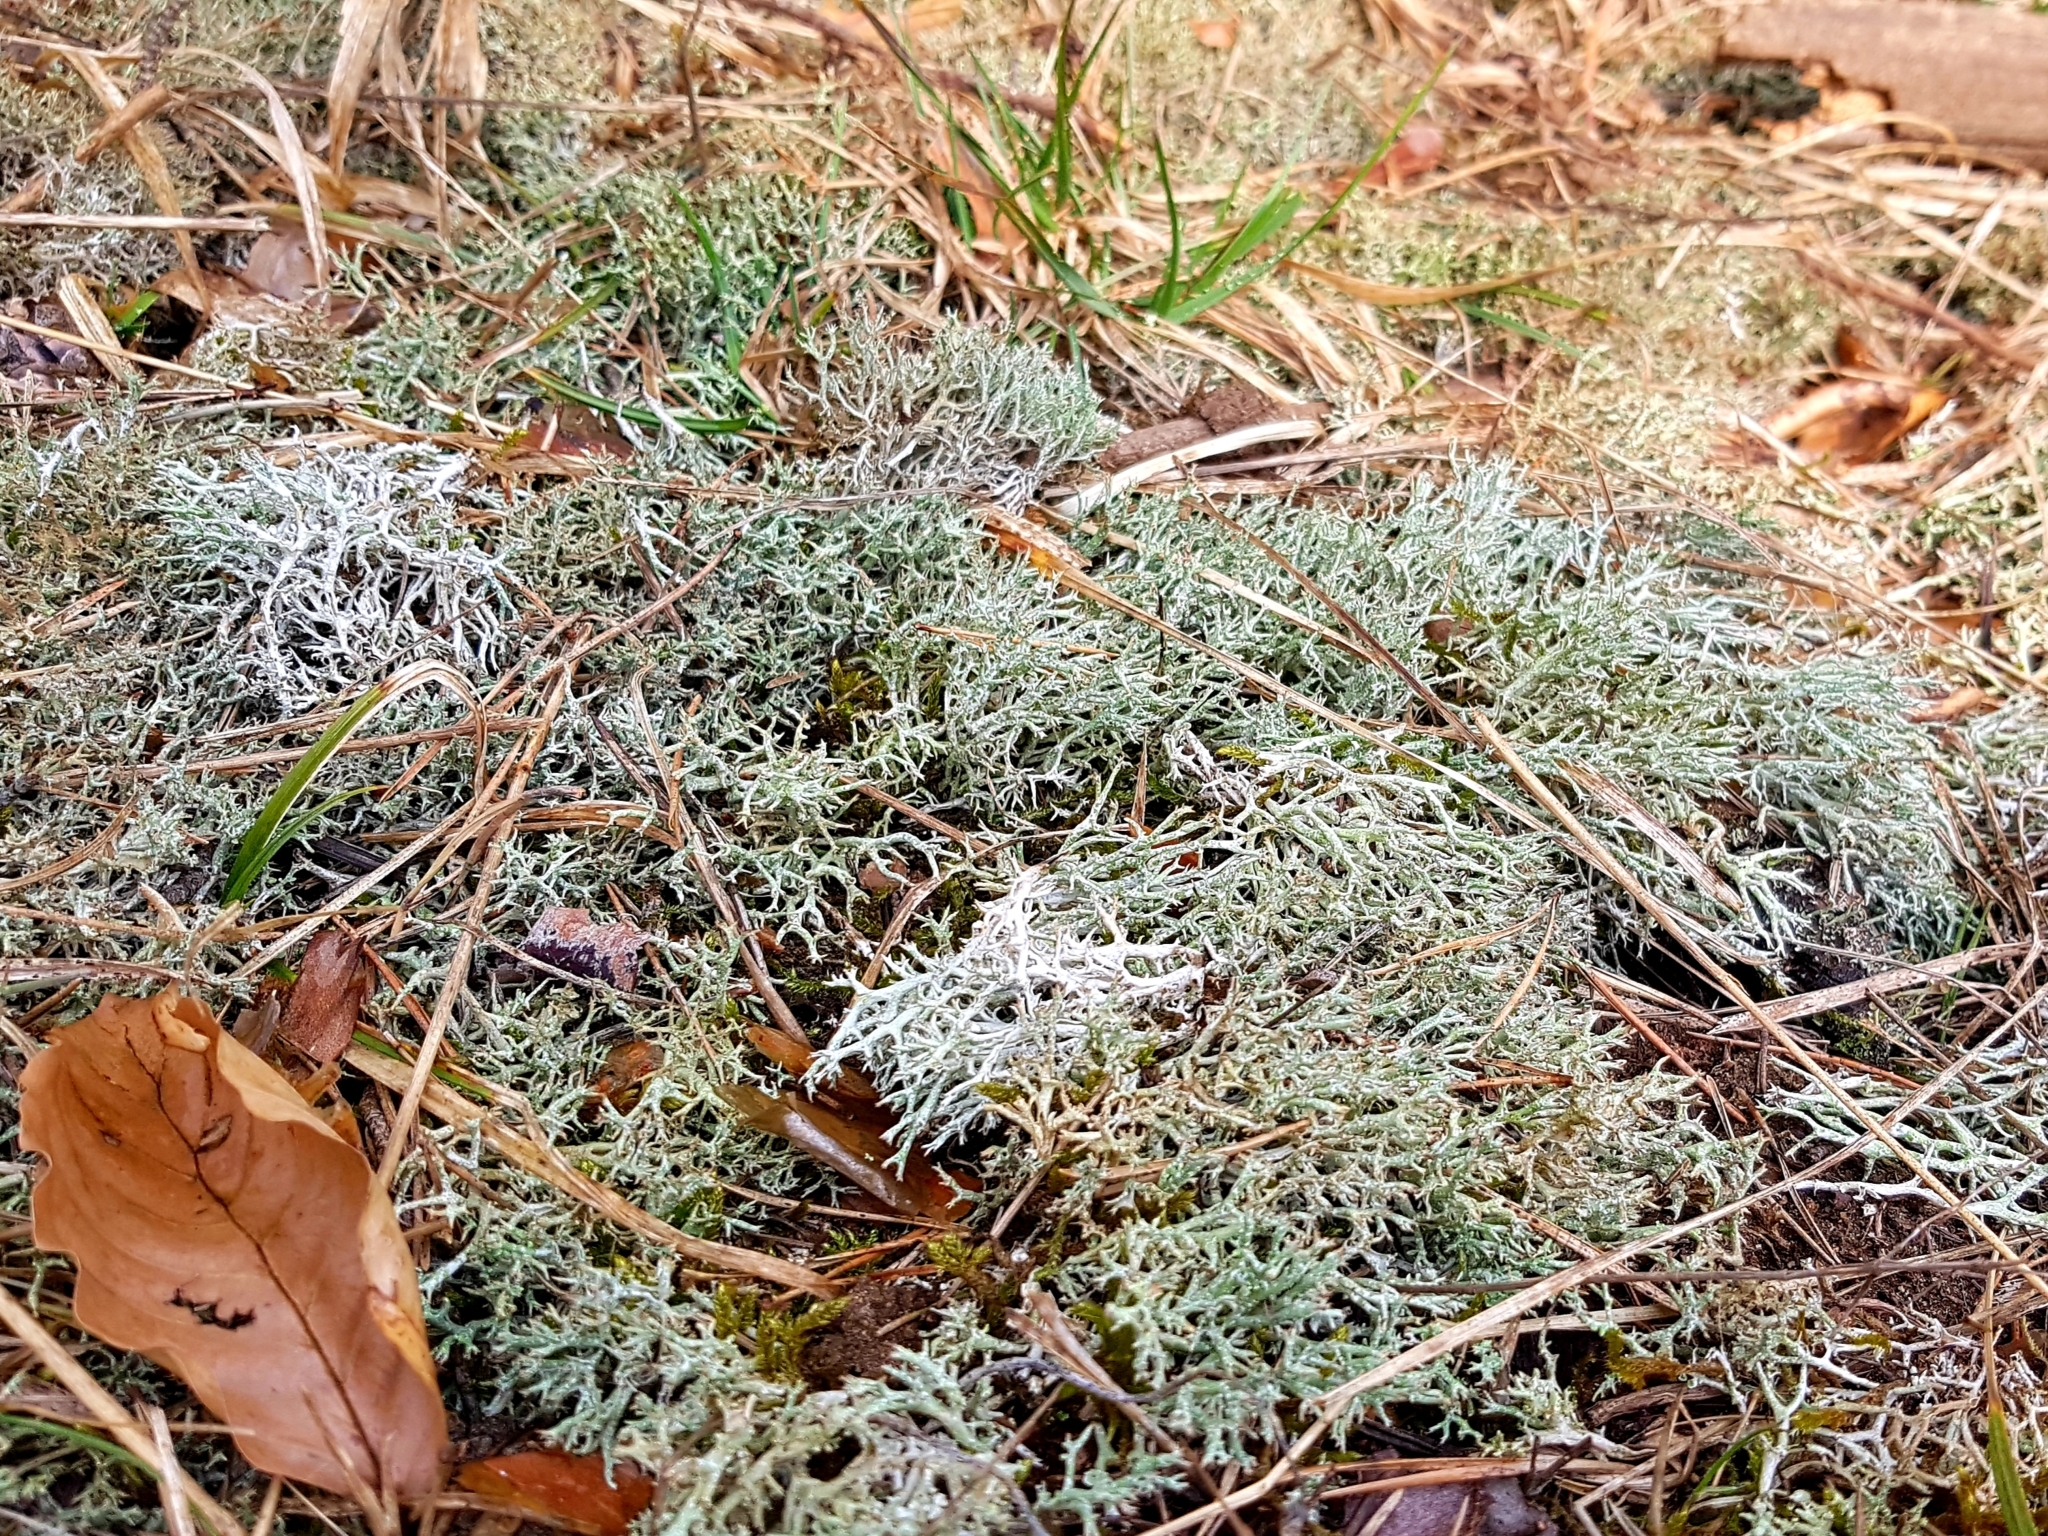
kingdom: Fungi
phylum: Ascomycota
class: Lecanoromycetes
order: Lecanorales
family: Cladoniaceae
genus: Cladonia
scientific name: Cladonia rangiformis
